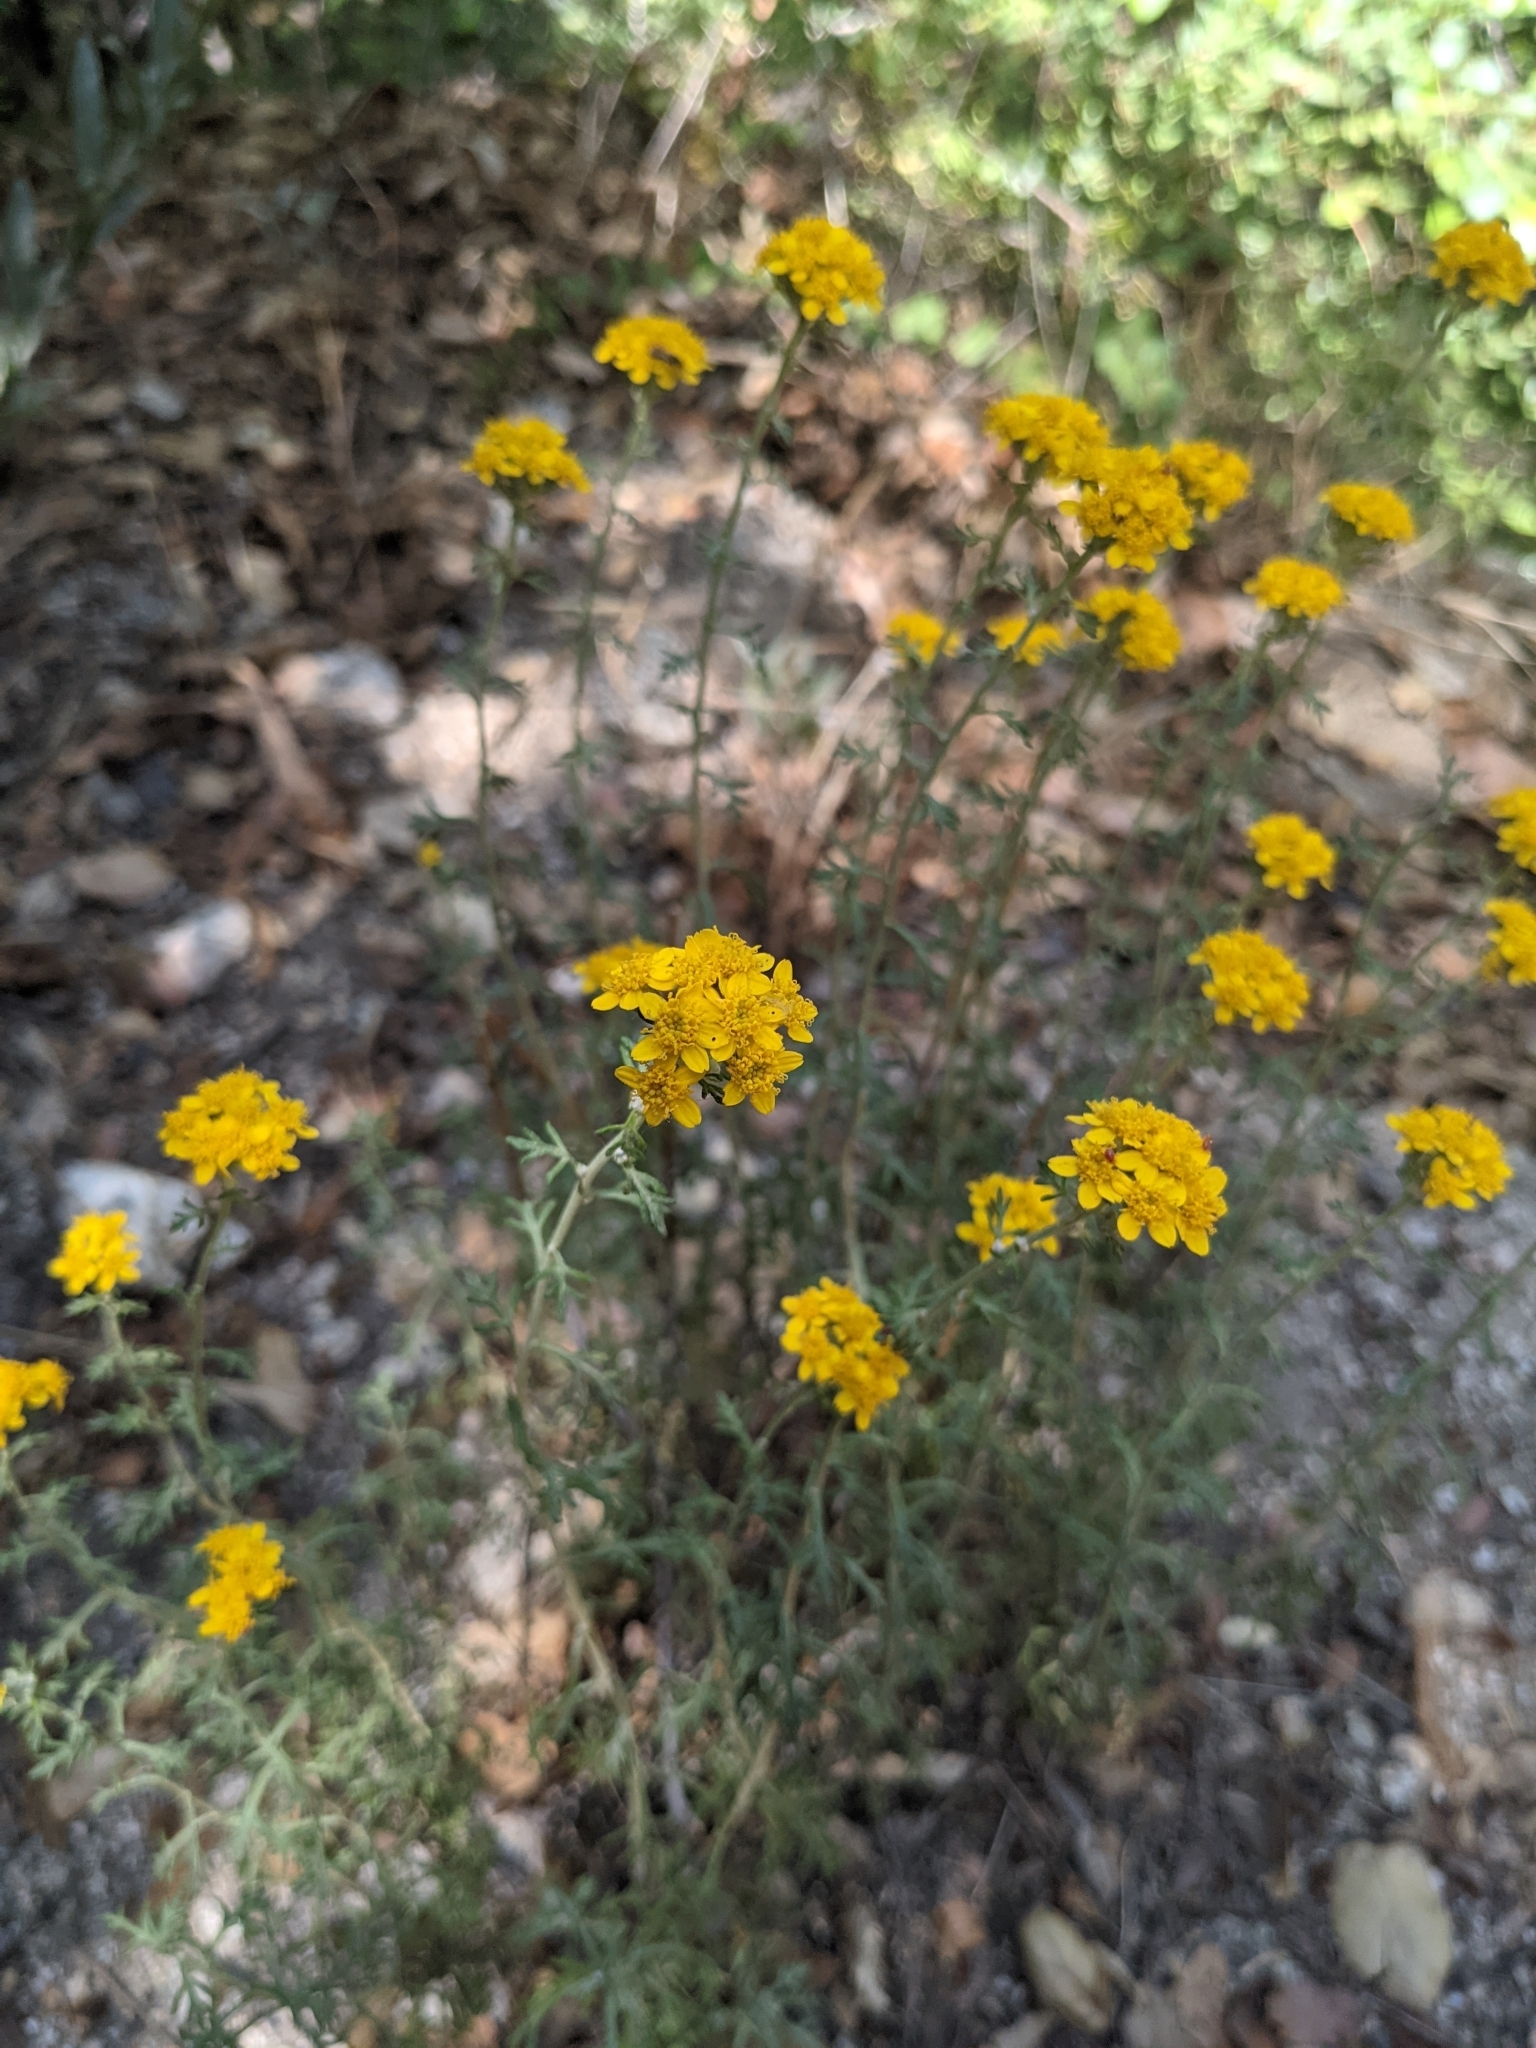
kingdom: Plantae
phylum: Tracheophyta
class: Magnoliopsida
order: Asterales
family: Asteraceae
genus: Eriophyllum
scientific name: Eriophyllum confertiflorum
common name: Golden-yarrow
